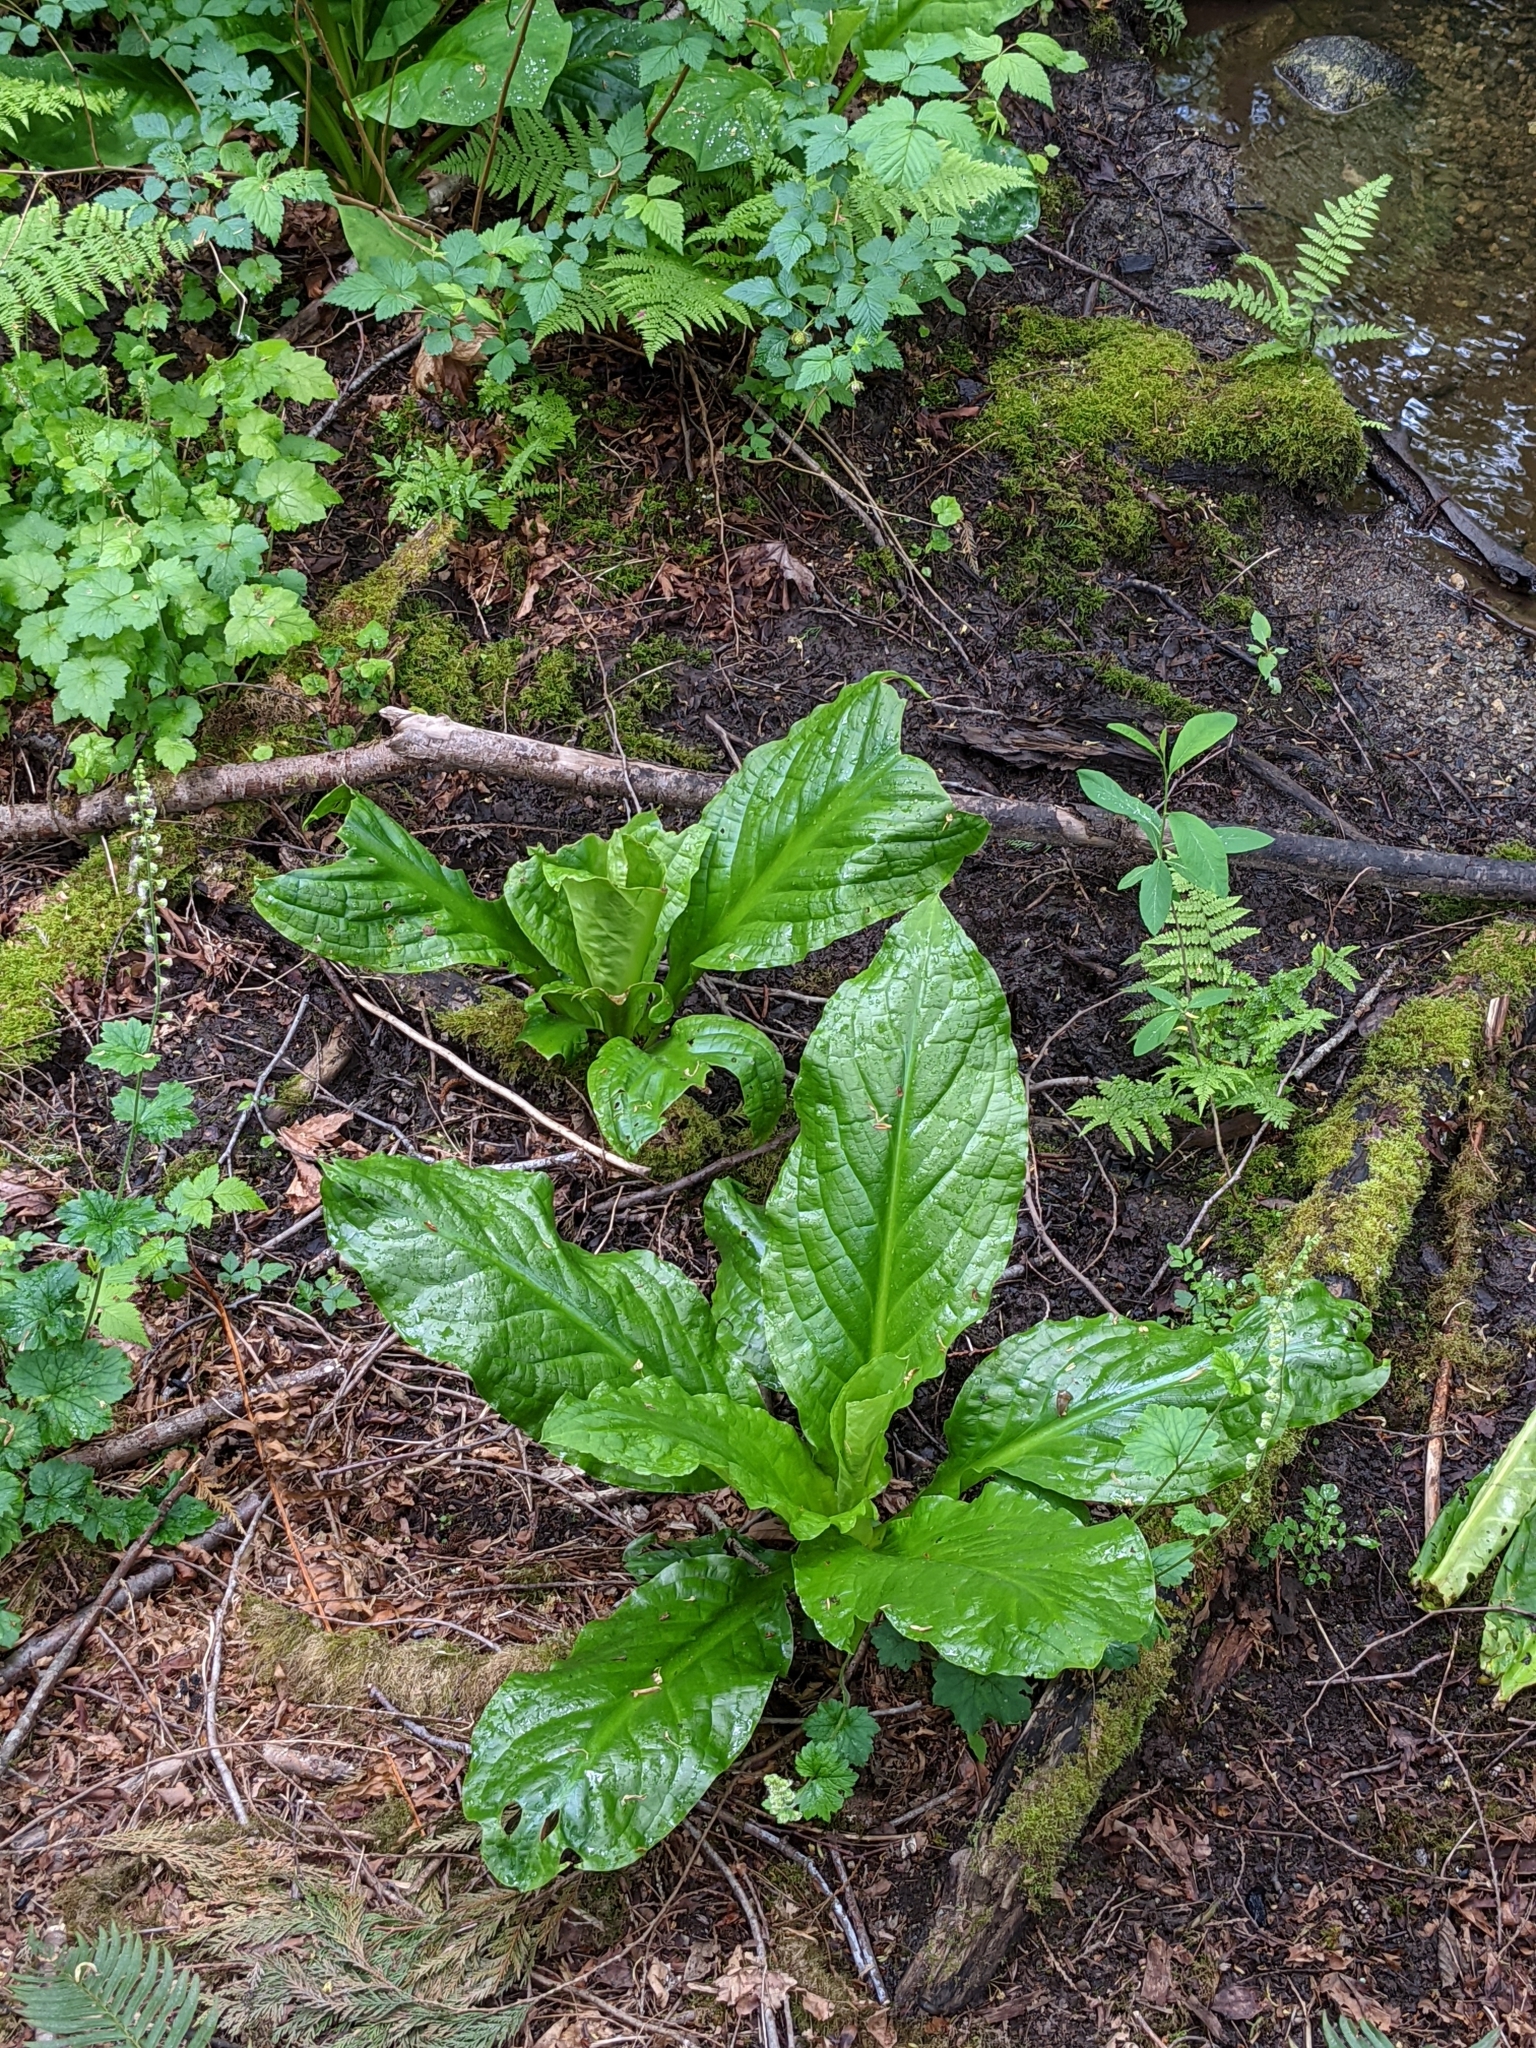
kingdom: Plantae
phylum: Tracheophyta
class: Liliopsida
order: Alismatales
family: Araceae
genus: Lysichiton
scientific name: Lysichiton americanus
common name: American skunk cabbage
